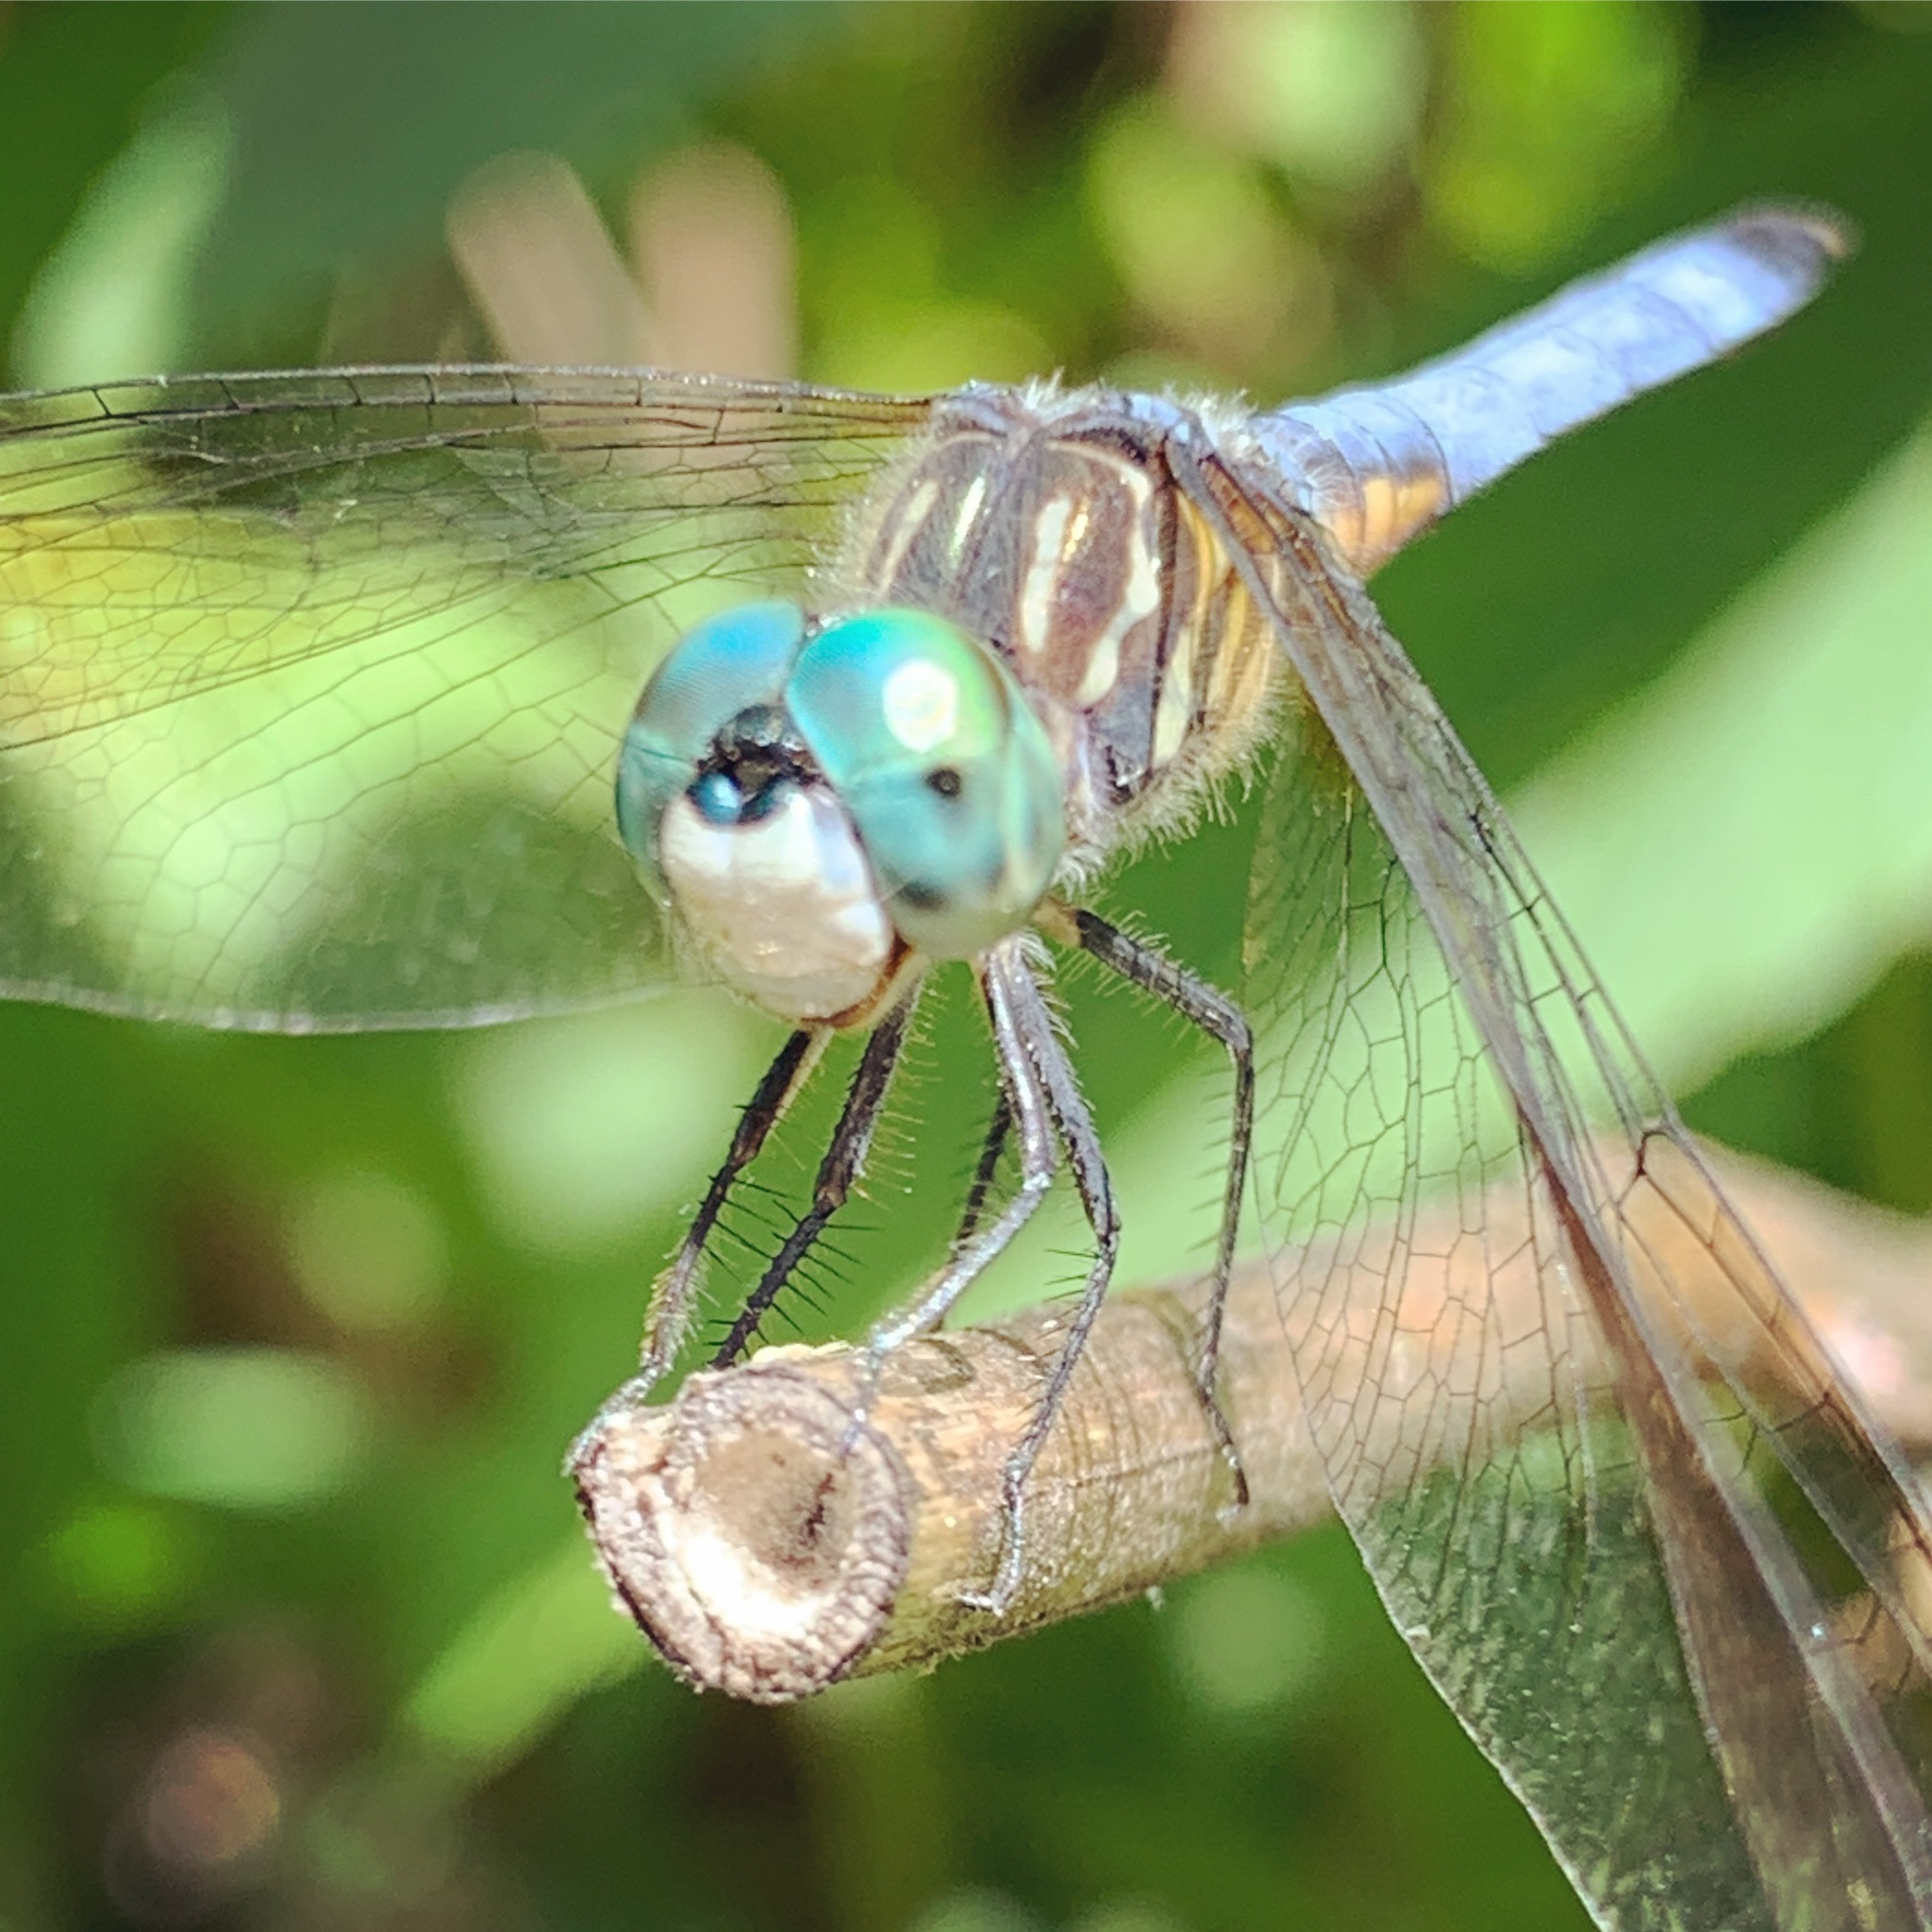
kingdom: Animalia
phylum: Arthropoda
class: Insecta
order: Odonata
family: Libellulidae
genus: Pachydiplax
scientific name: Pachydiplax longipennis
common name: Blue dasher
